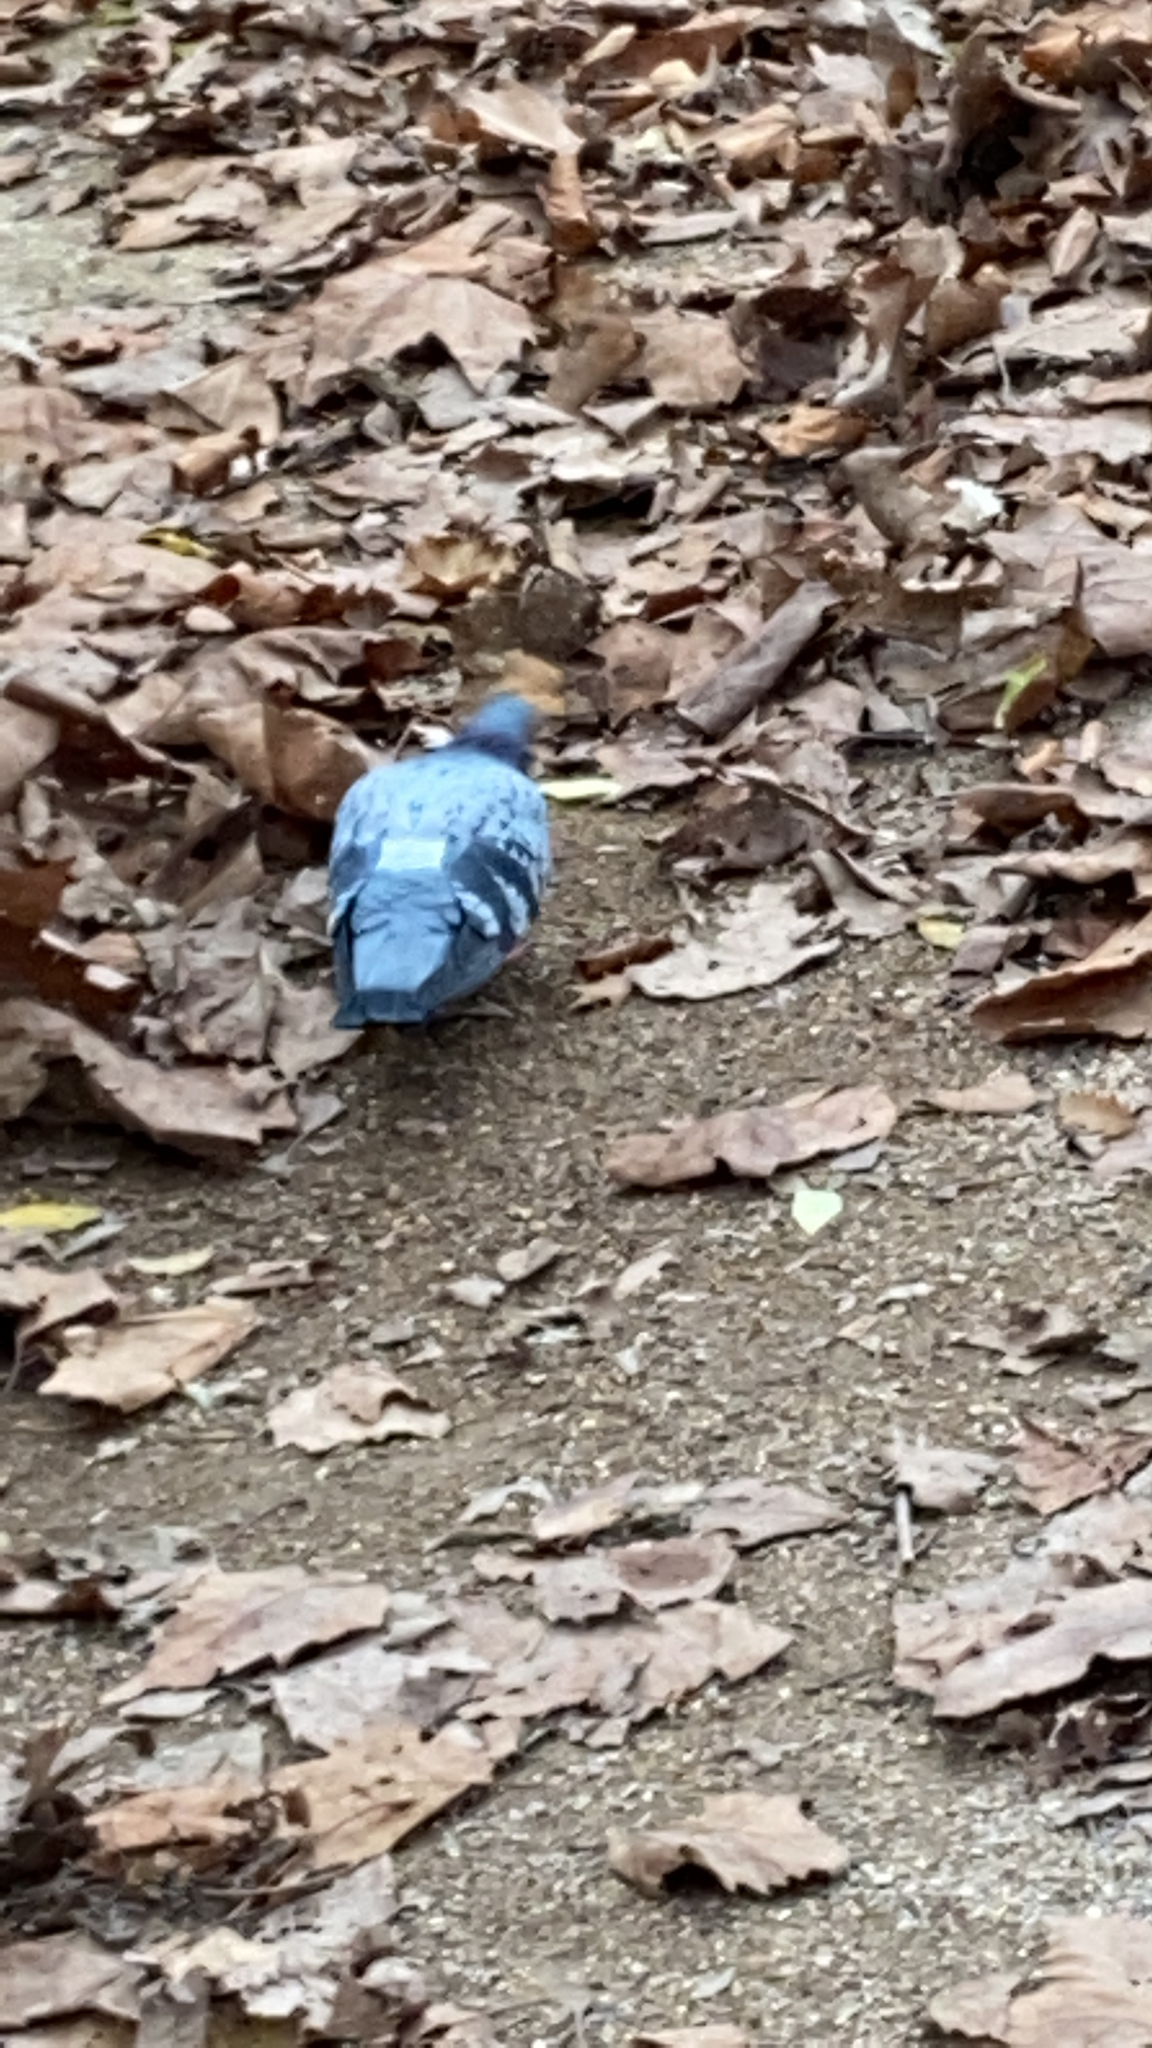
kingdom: Animalia
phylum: Chordata
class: Aves
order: Columbiformes
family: Columbidae
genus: Columba
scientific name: Columba livia
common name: Rock pigeon
